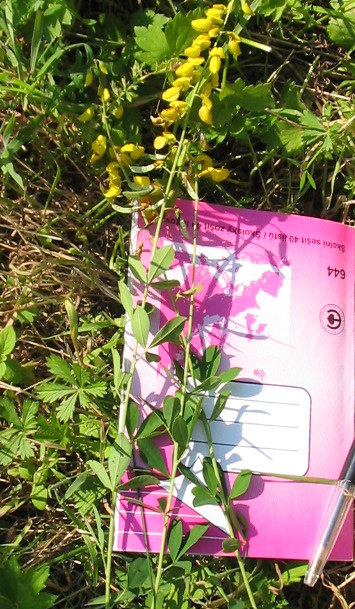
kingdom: Plantae
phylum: Tracheophyta
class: Magnoliopsida
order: Fabales
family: Fabaceae
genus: Cytisus
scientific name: Cytisus nigricans
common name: Black broom
